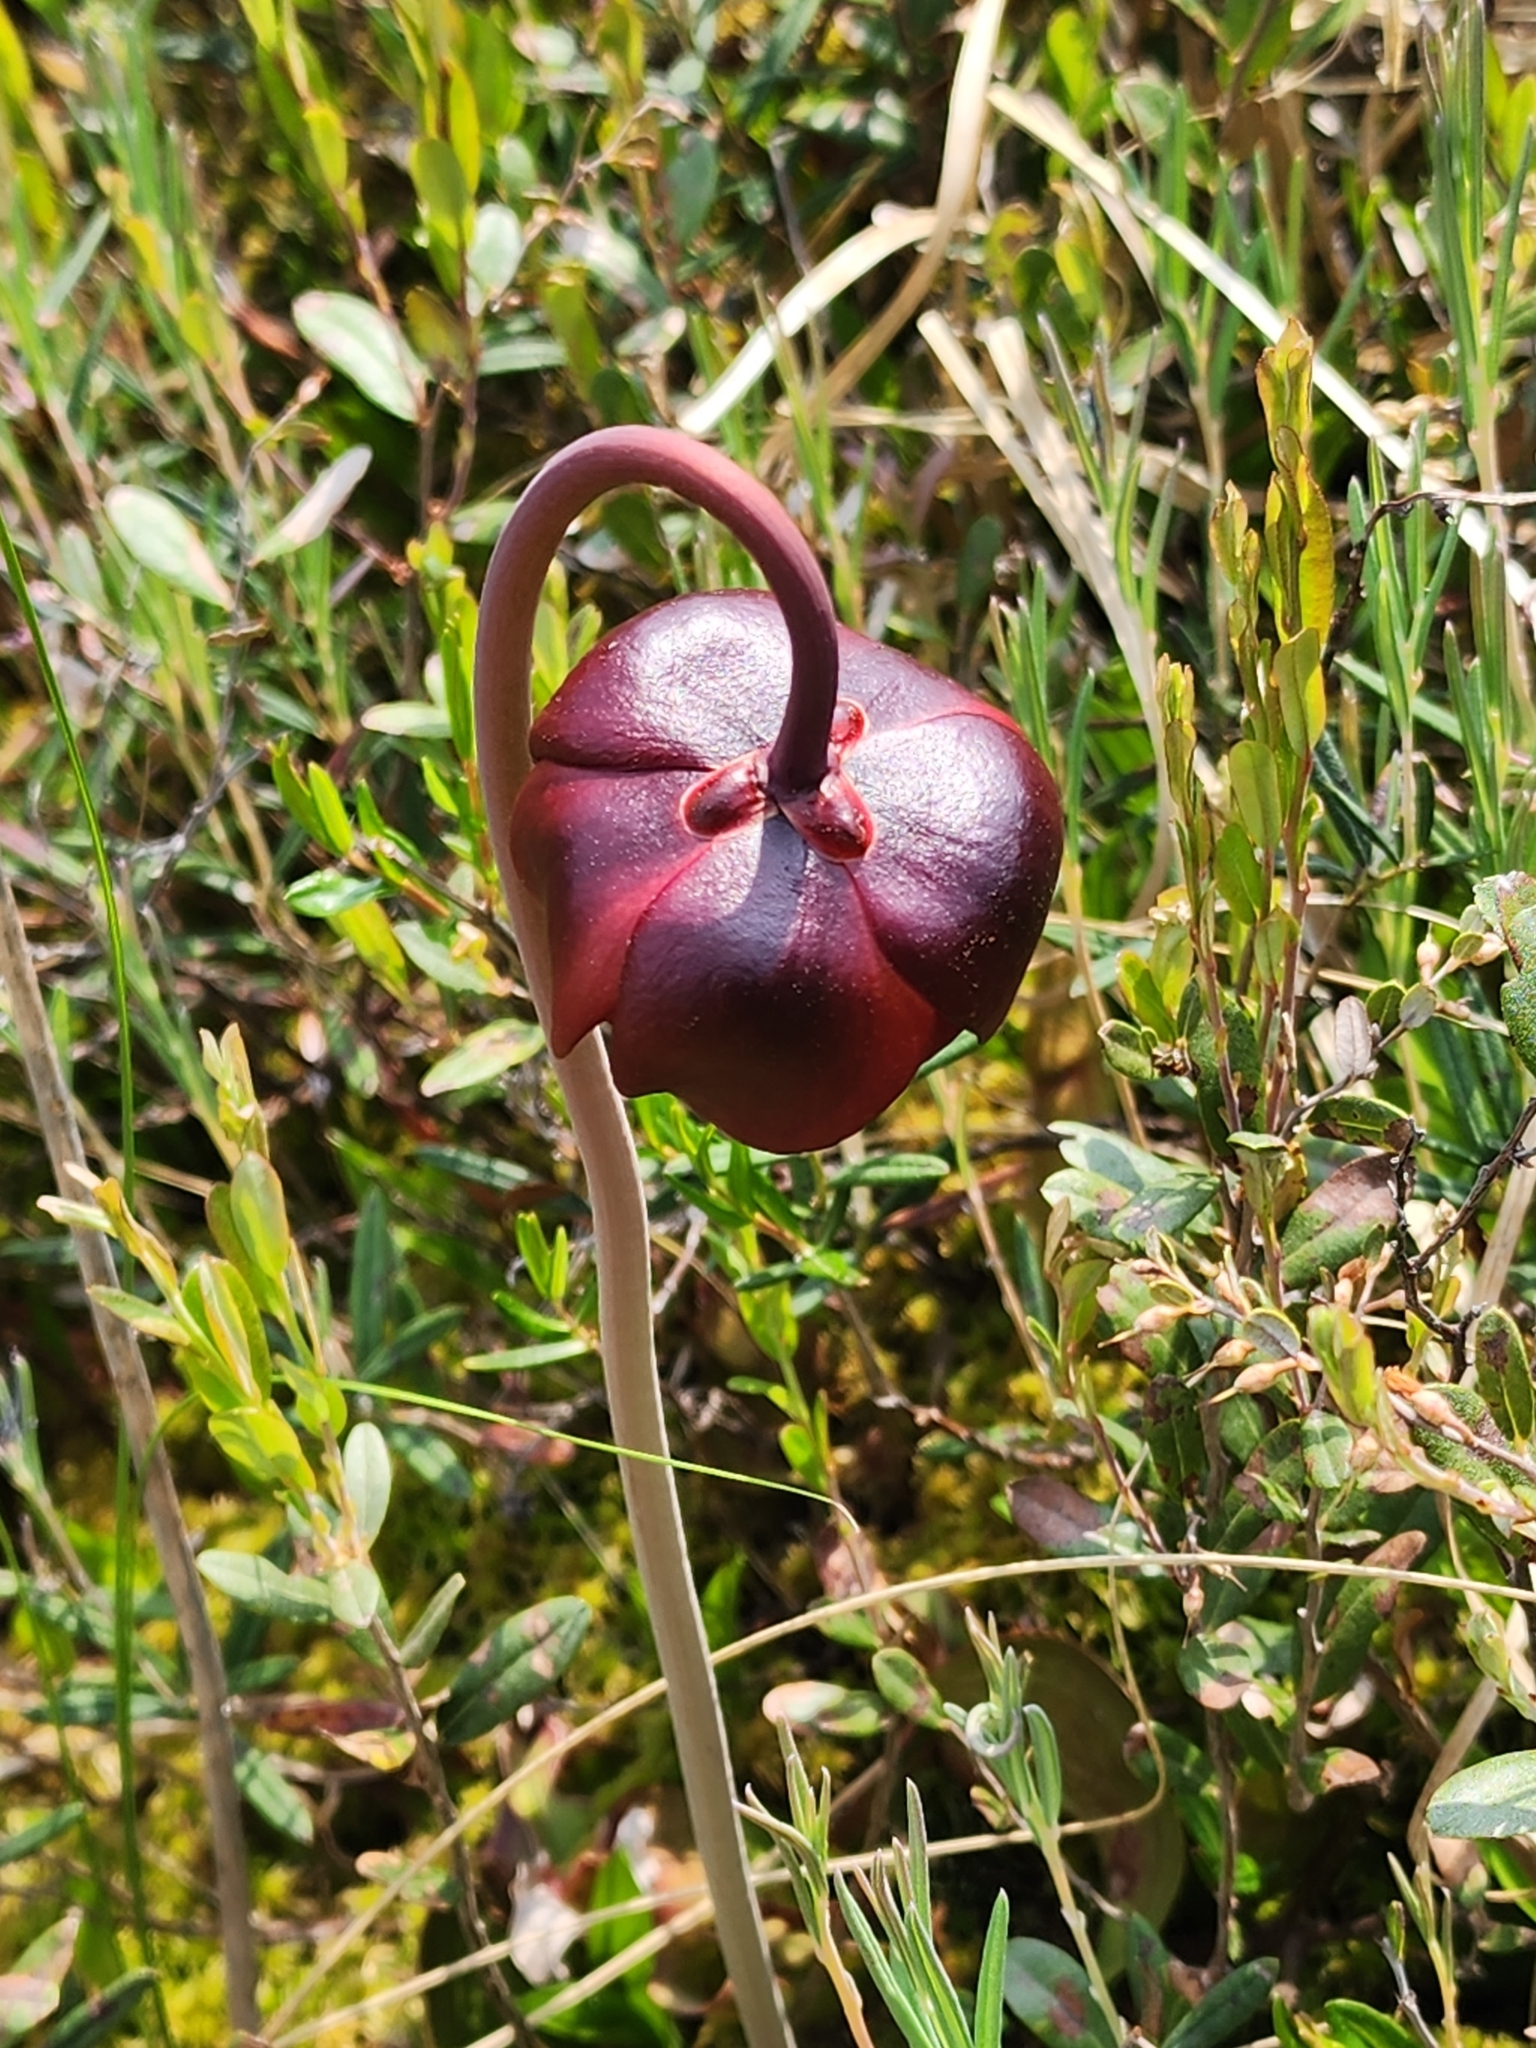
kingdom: Plantae
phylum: Tracheophyta
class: Magnoliopsida
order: Ericales
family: Sarraceniaceae
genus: Sarracenia
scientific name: Sarracenia purpurea
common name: Pitcherplant
